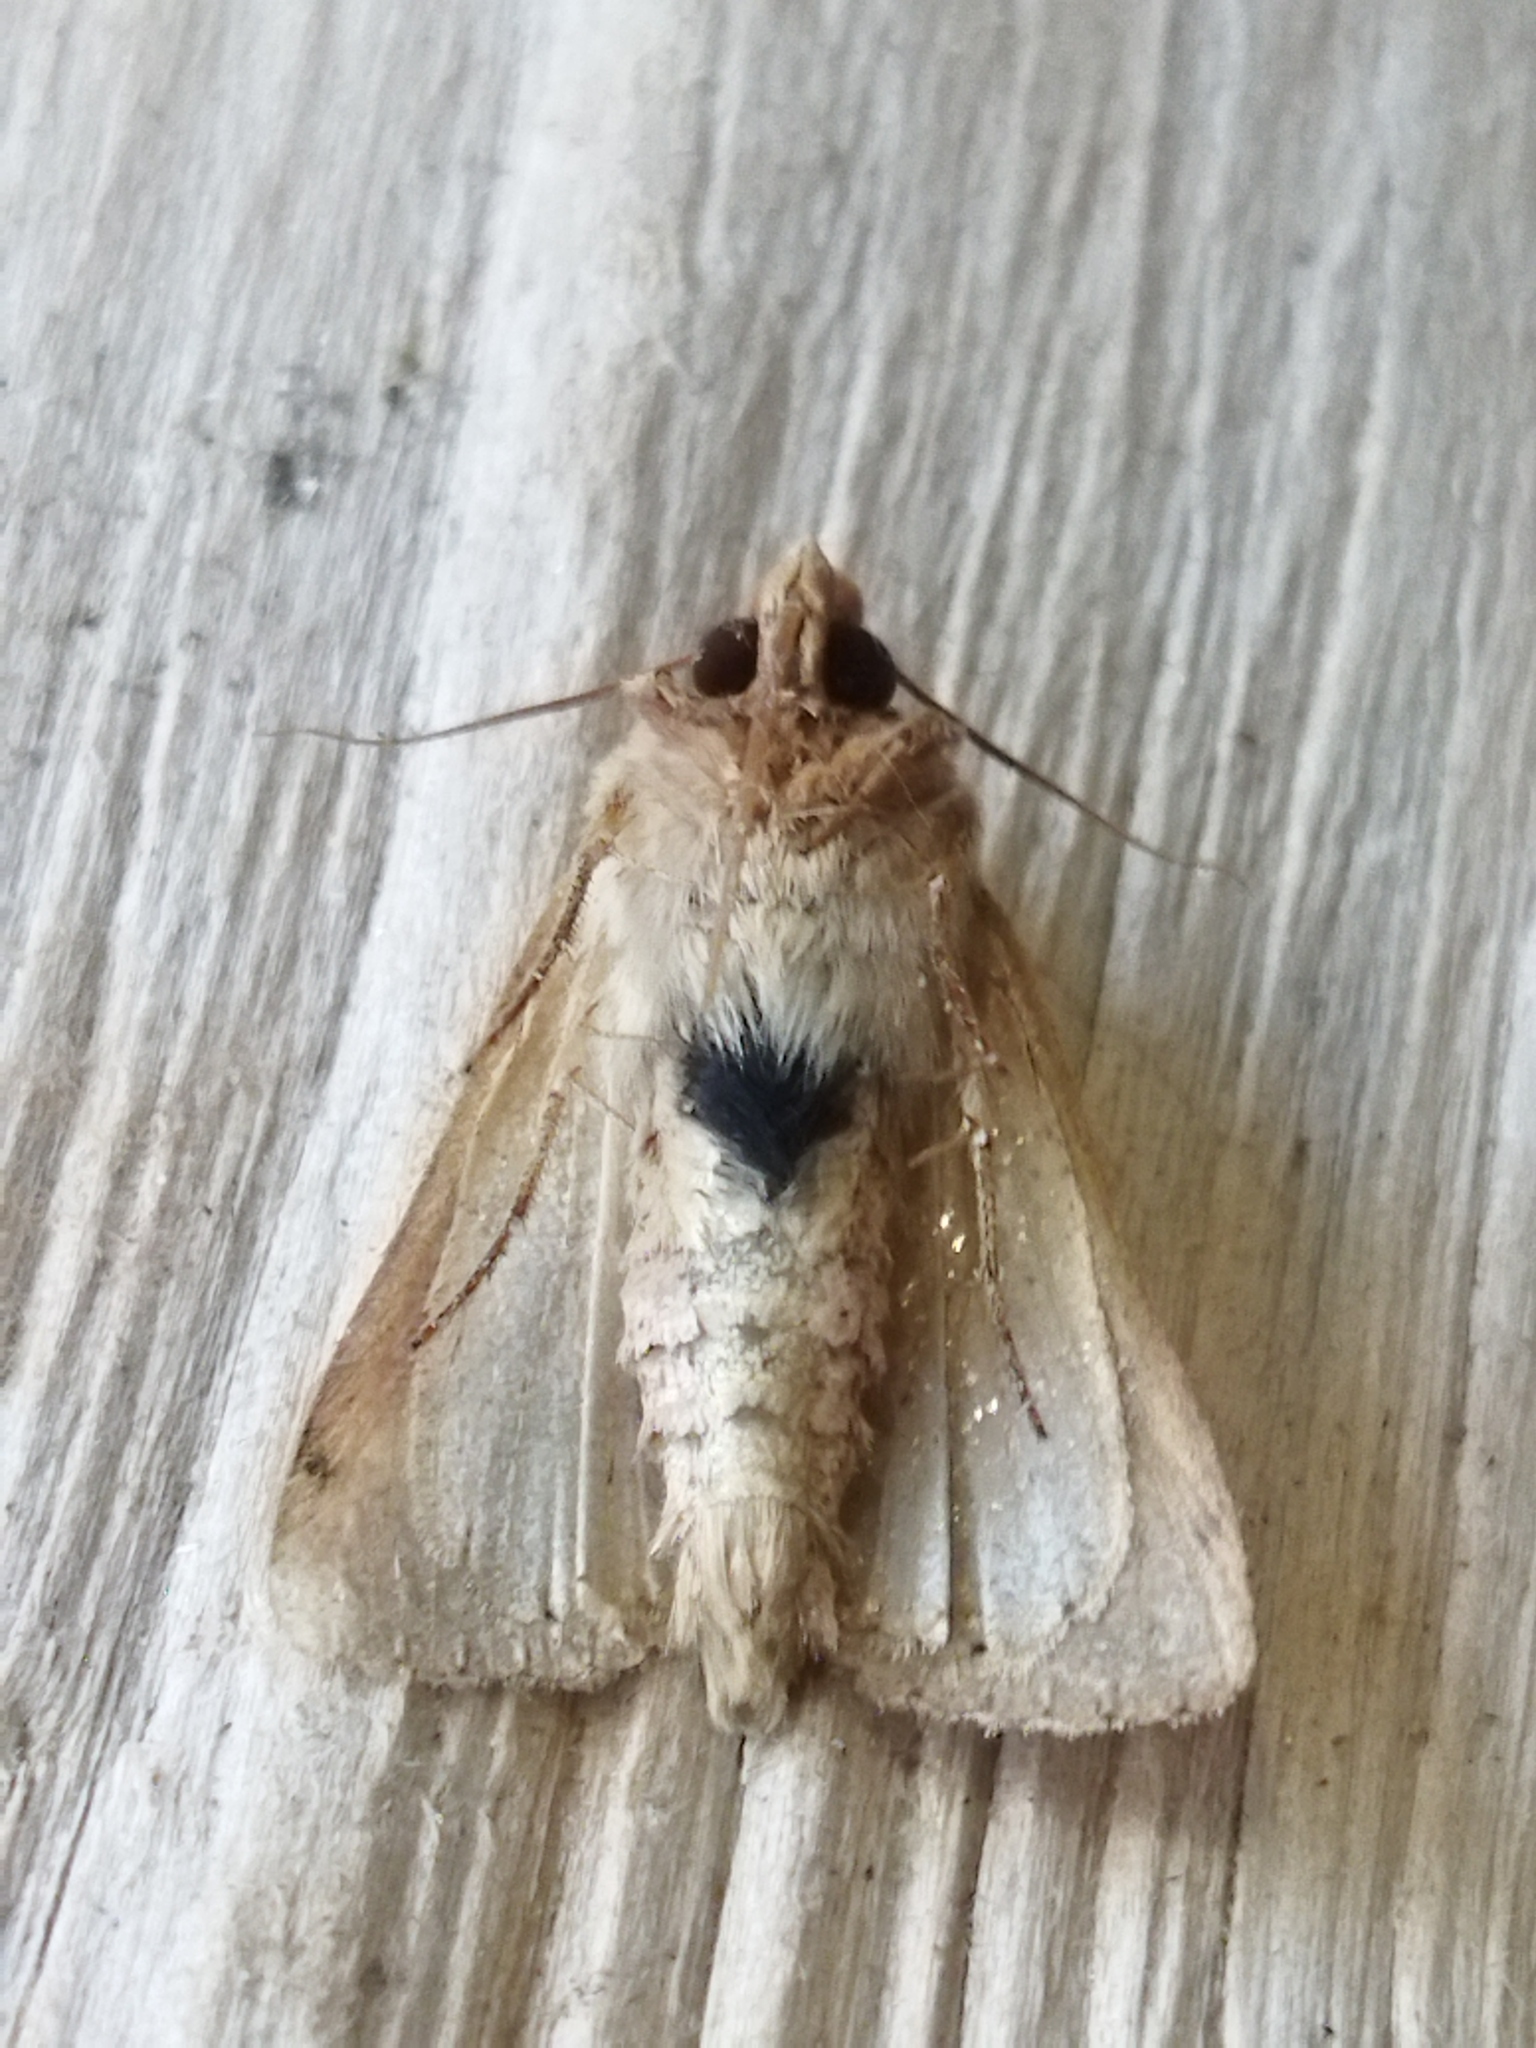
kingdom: Animalia
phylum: Arthropoda
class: Insecta
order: Lepidoptera
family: Noctuidae
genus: Mythimna
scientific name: Mythimna ferrago
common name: Clay
